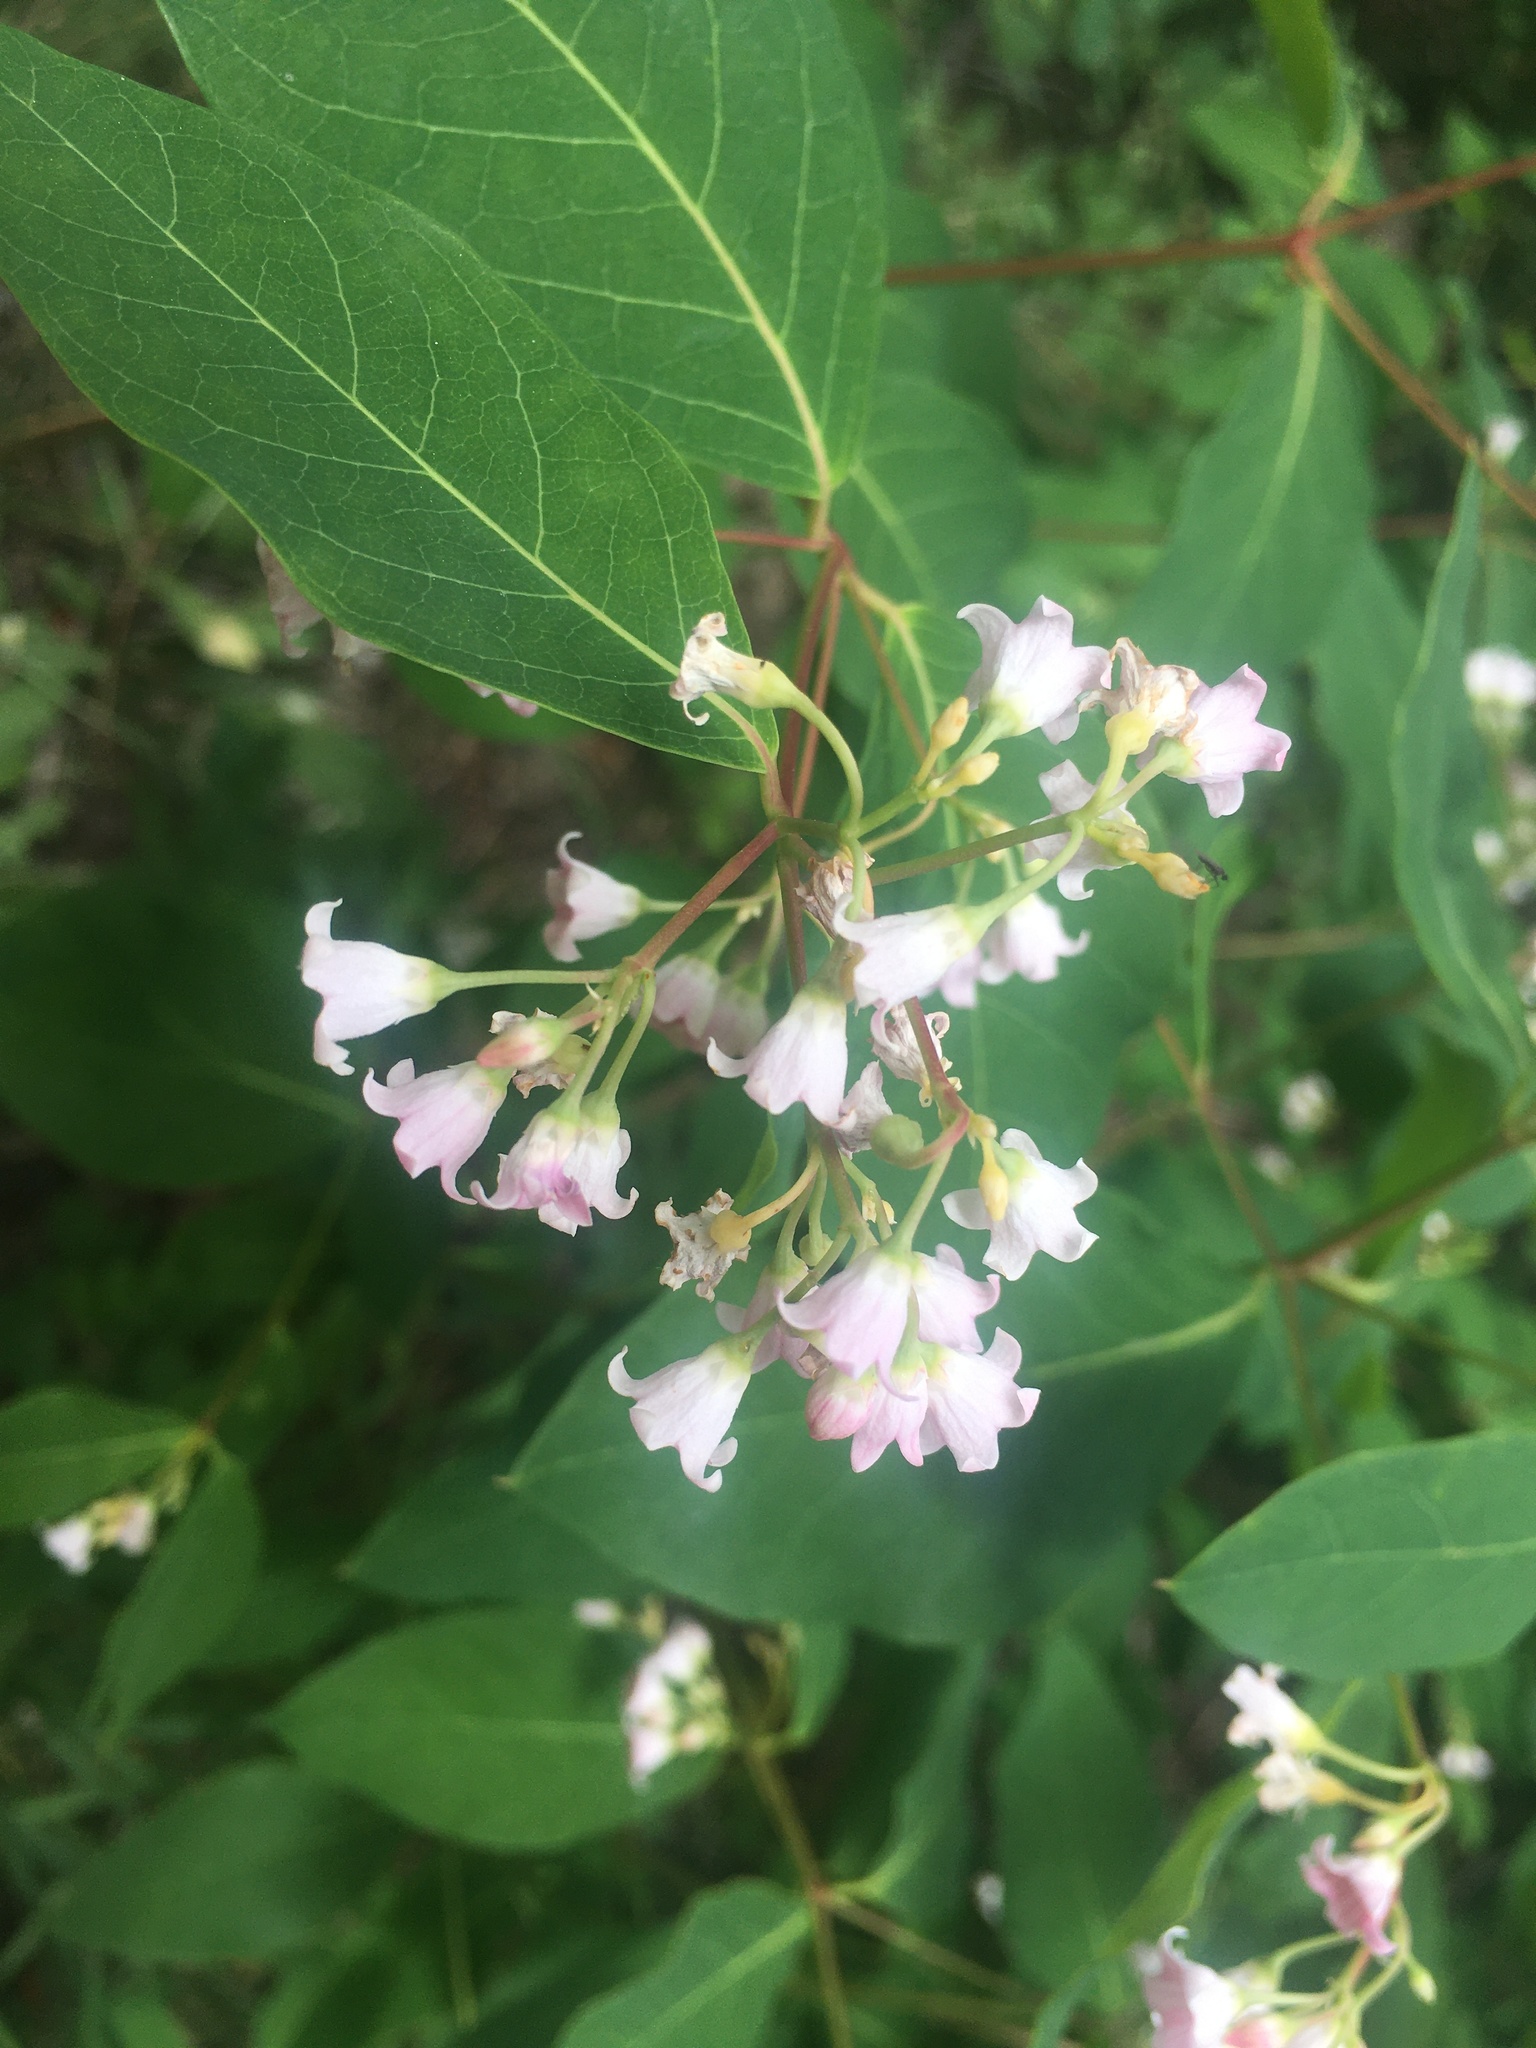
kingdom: Plantae
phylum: Tracheophyta
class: Magnoliopsida
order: Gentianales
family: Apocynaceae
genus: Apocynum
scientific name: Apocynum androsaemifolium
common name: Spreading dogbane
